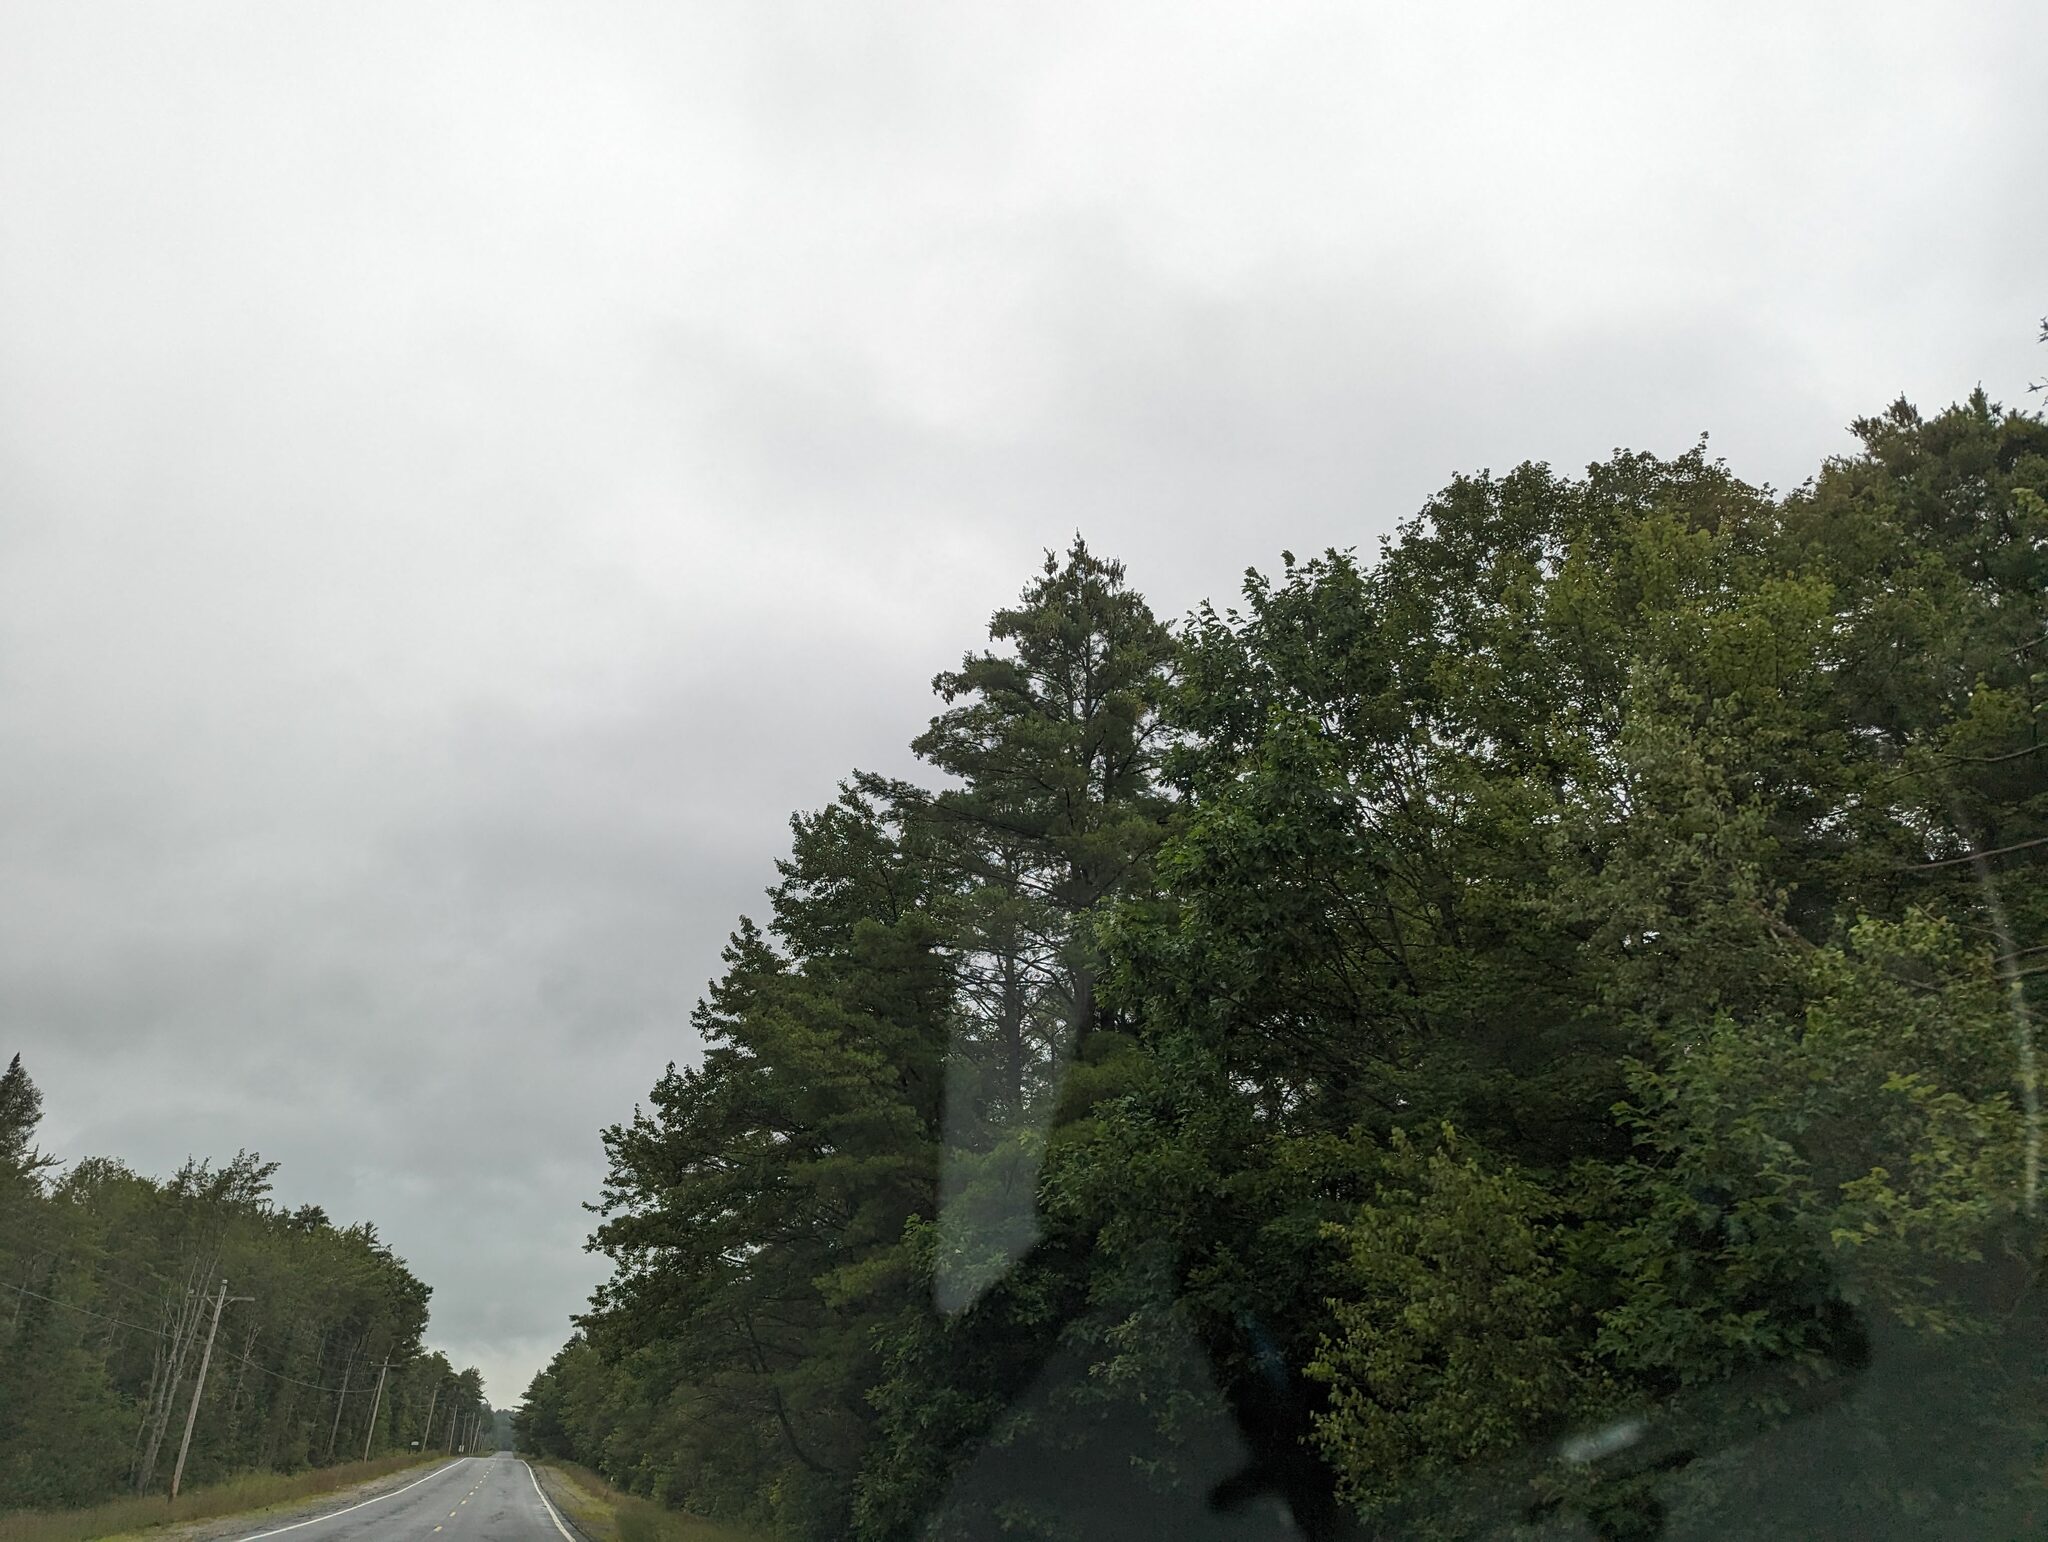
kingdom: Plantae
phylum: Tracheophyta
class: Pinopsida
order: Pinales
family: Pinaceae
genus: Pinus
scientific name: Pinus strobus
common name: Weymouth pine
